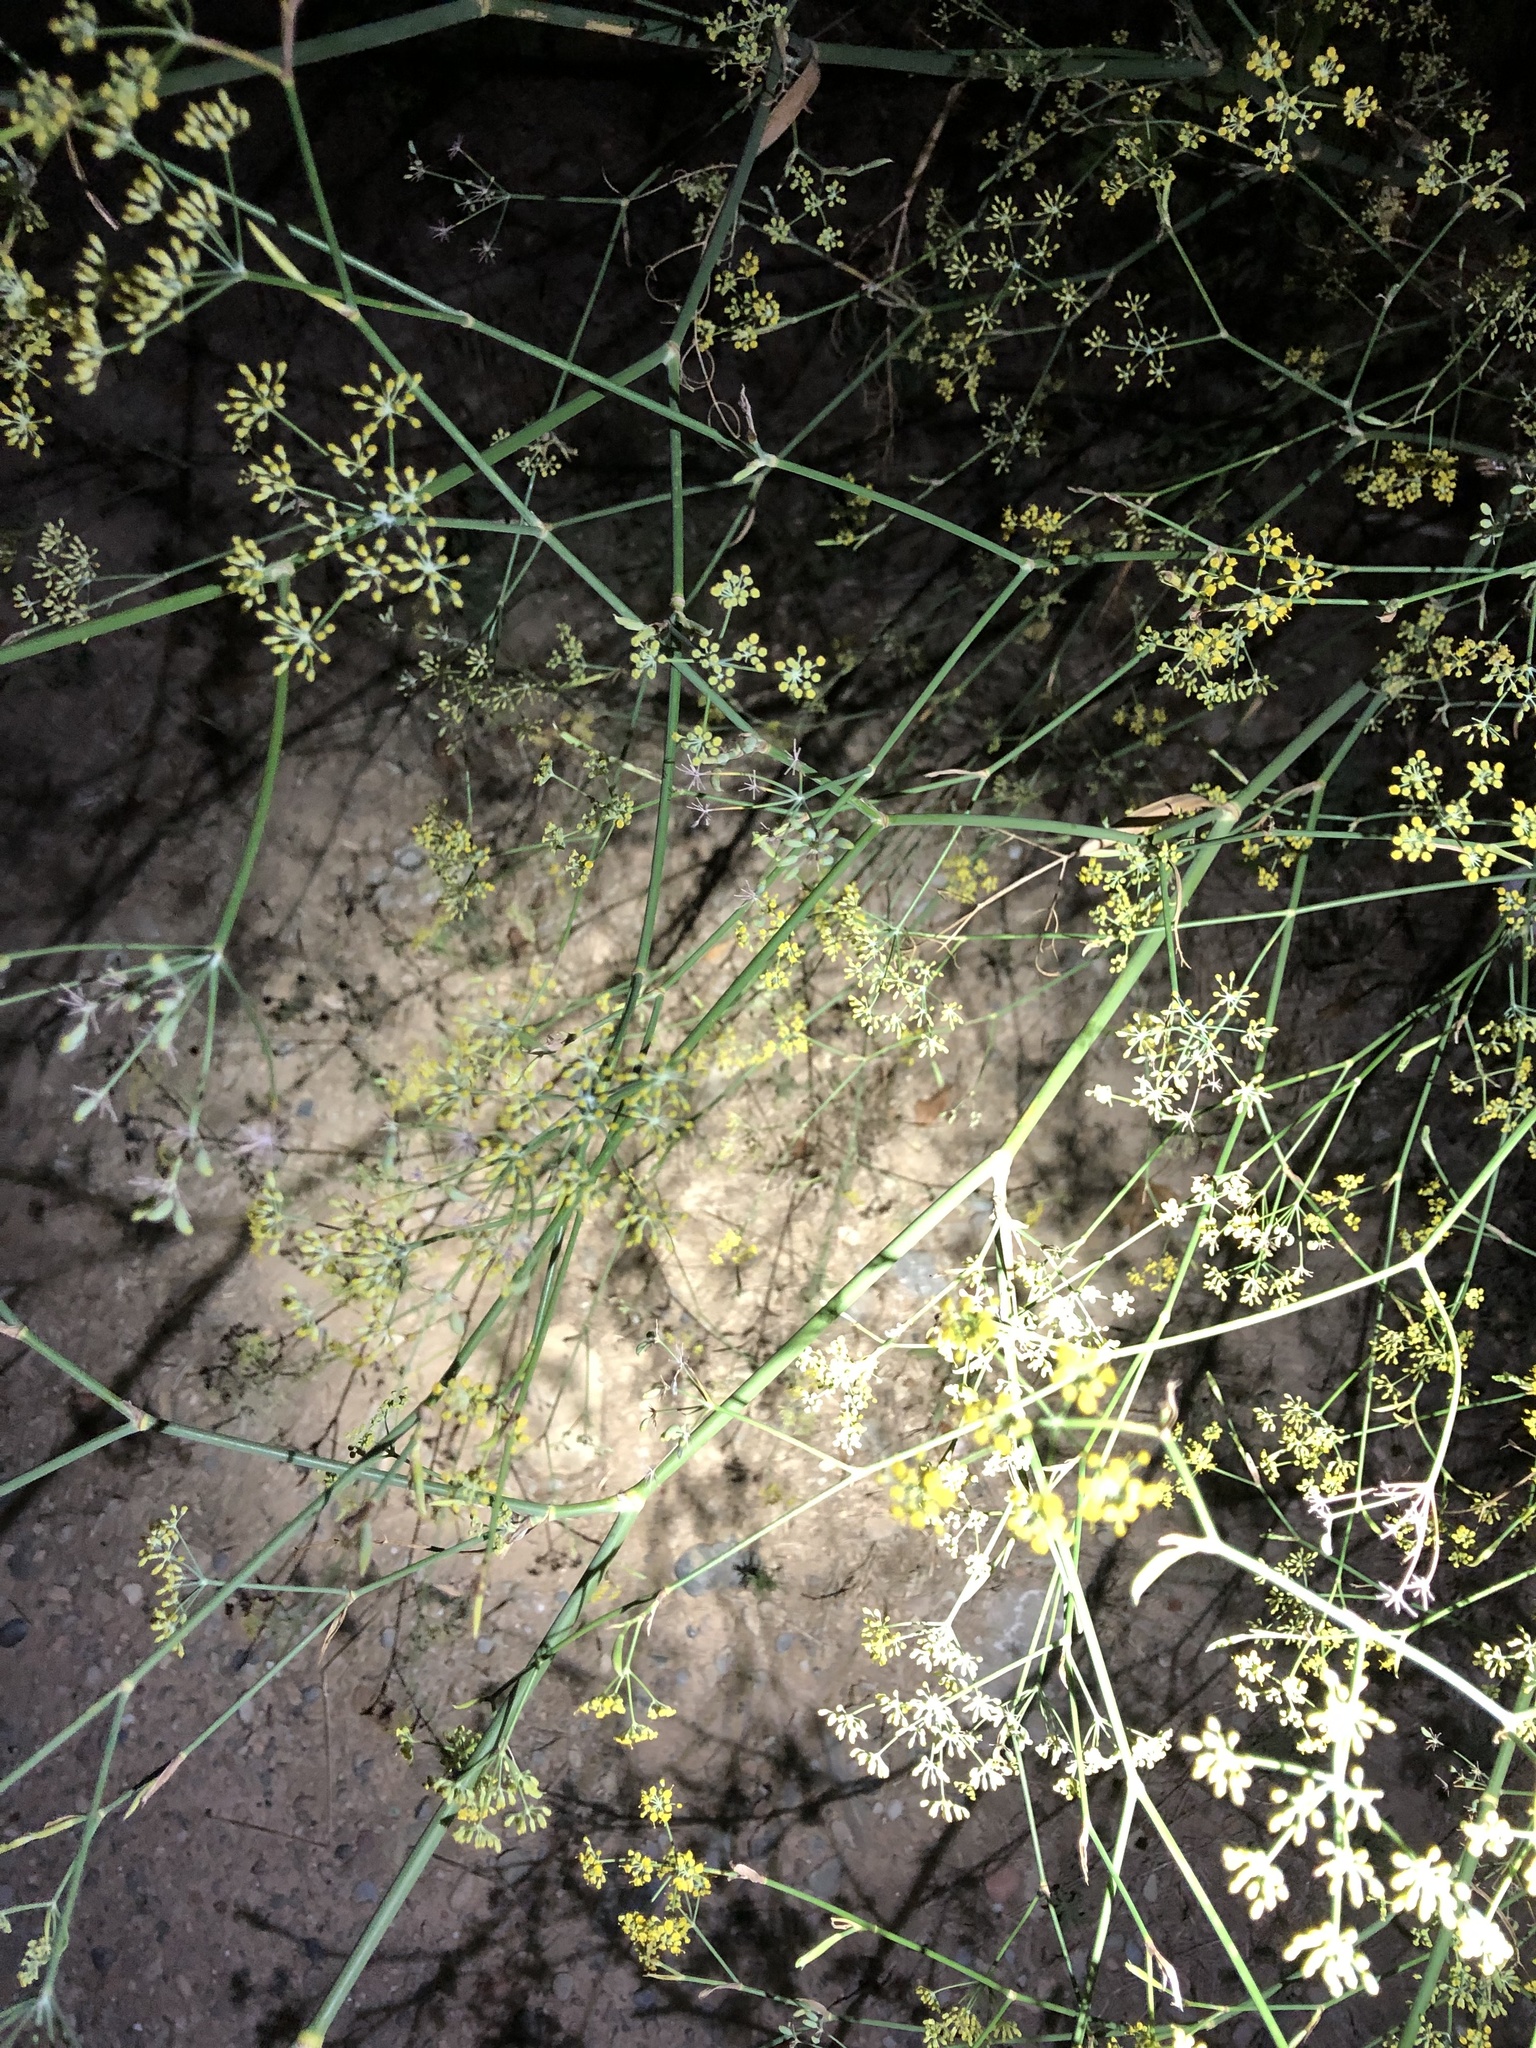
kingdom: Plantae
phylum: Tracheophyta
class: Magnoliopsida
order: Apiales
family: Apiaceae
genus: Foeniculum
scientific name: Foeniculum vulgare
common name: Fennel
